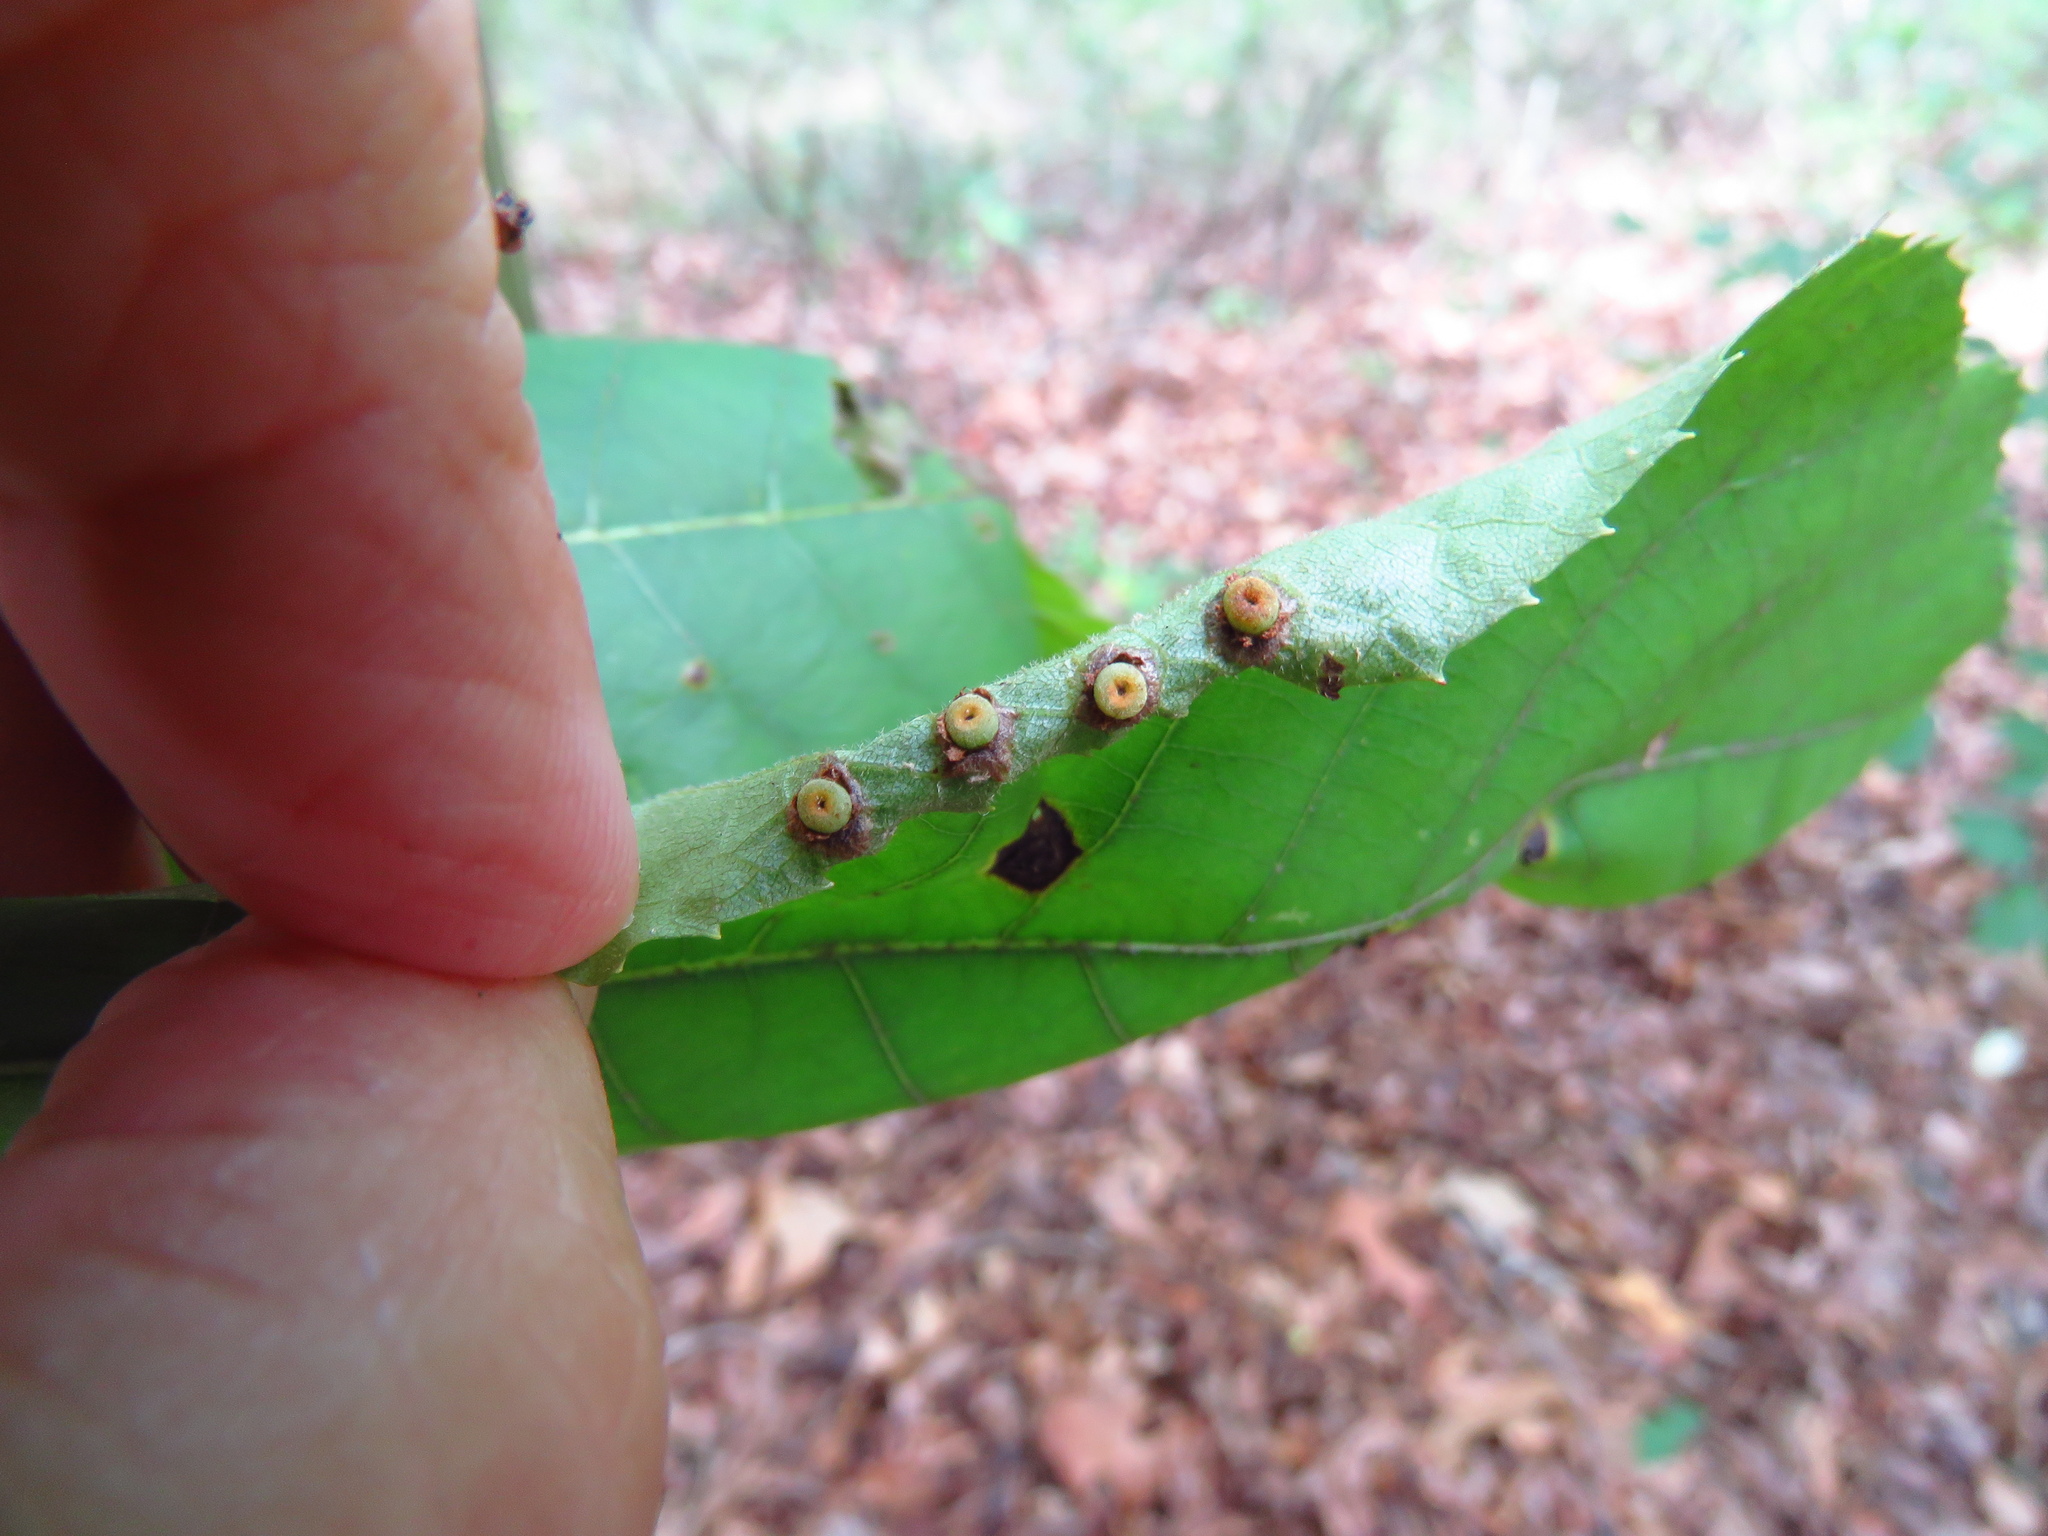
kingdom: Animalia
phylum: Arthropoda
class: Insecta
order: Diptera
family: Cecidomyiidae
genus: Caryomyia
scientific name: Caryomyia striolacrustum
